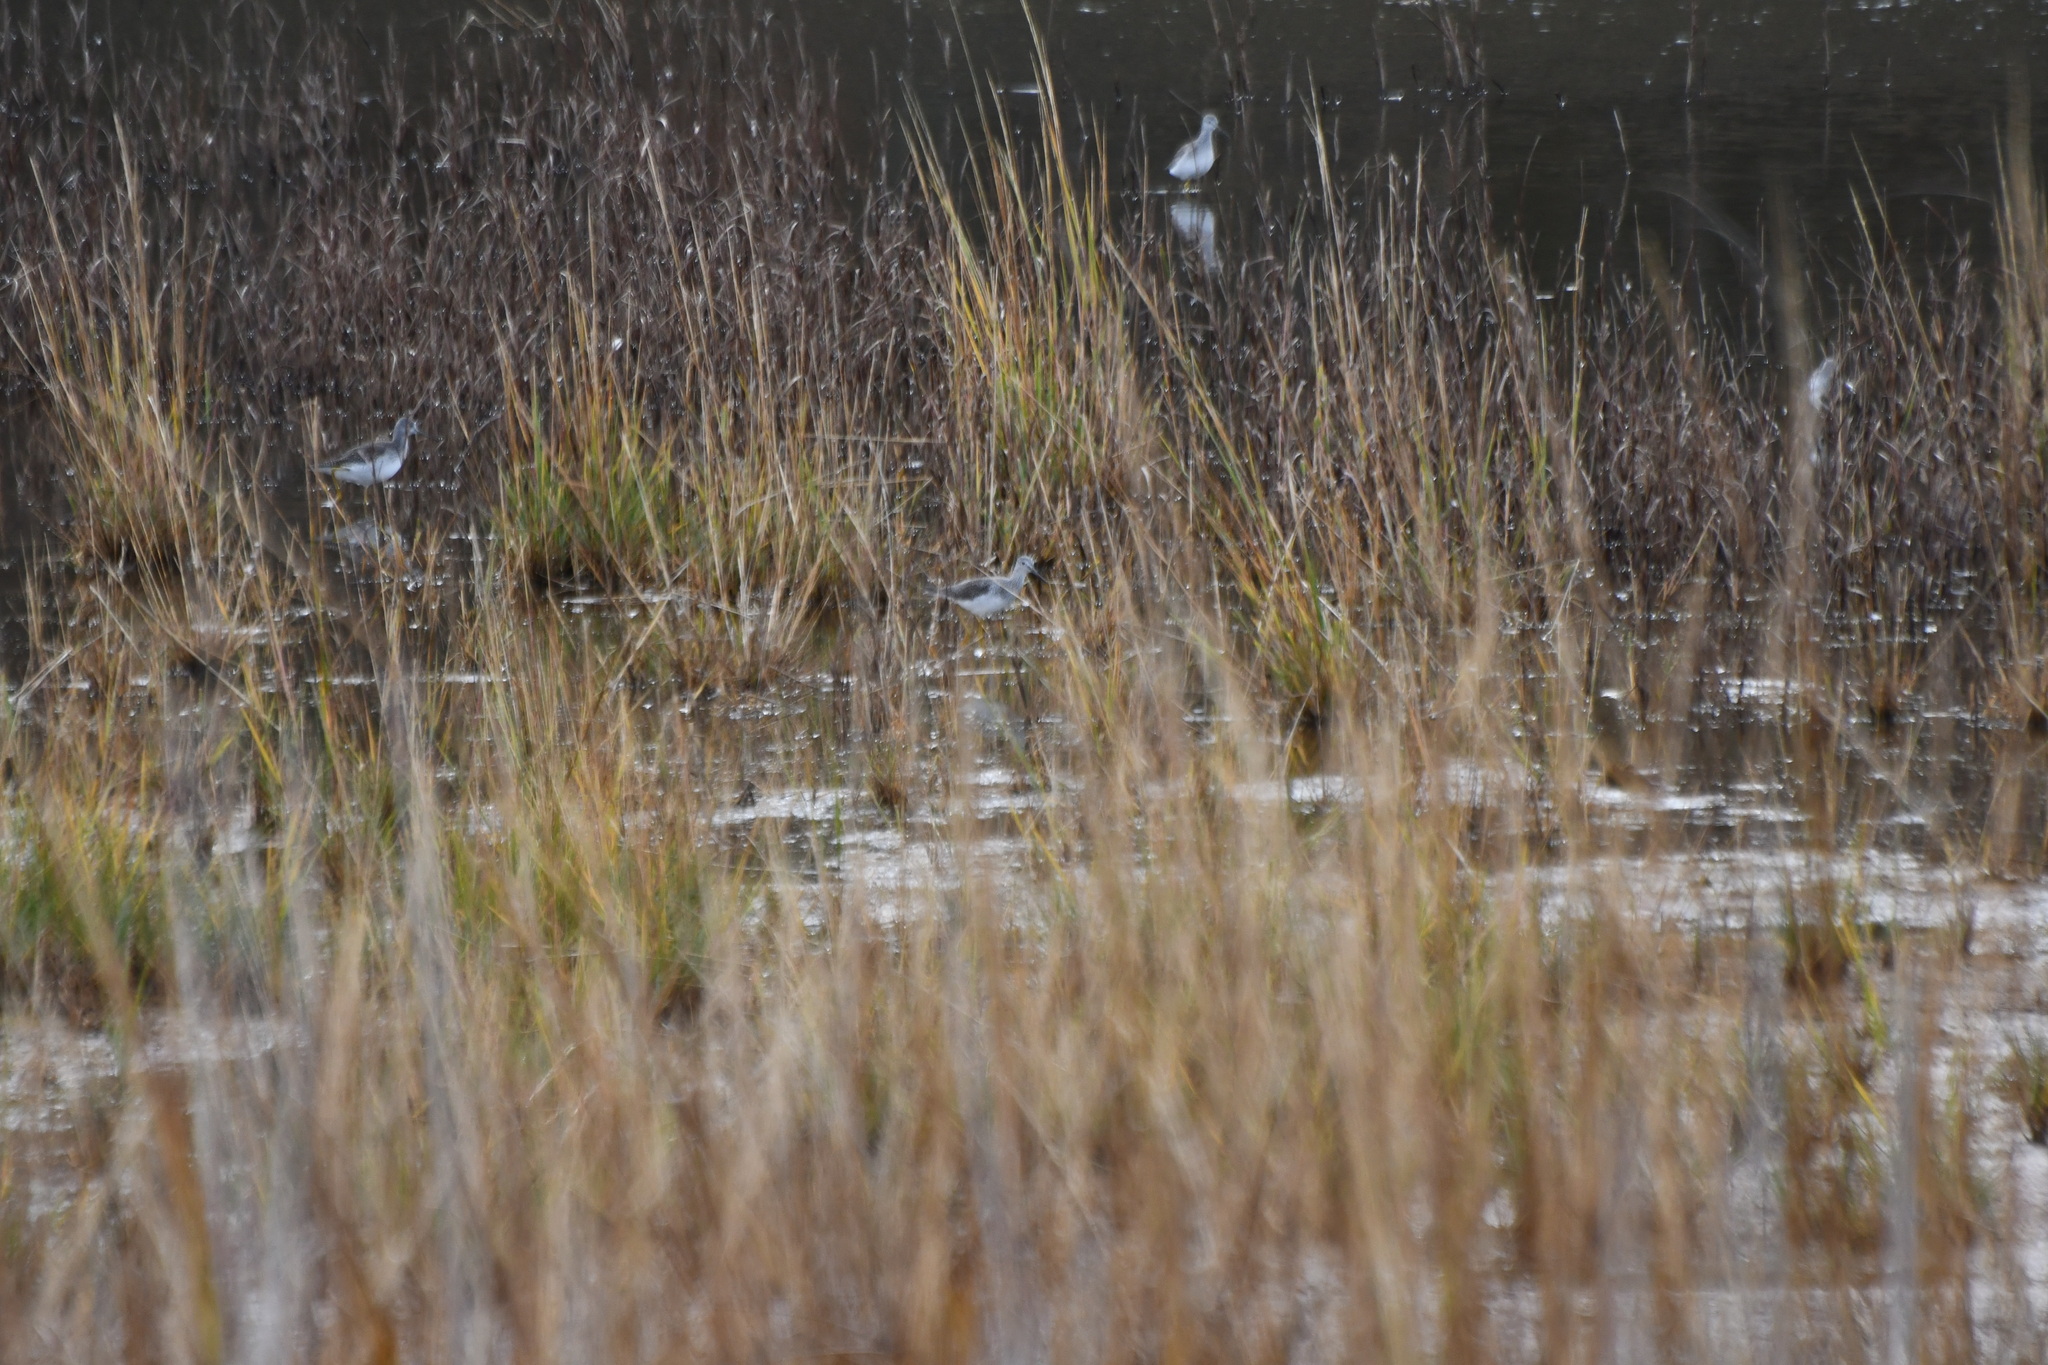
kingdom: Animalia
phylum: Chordata
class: Aves
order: Charadriiformes
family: Scolopacidae
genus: Tringa
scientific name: Tringa melanoleuca
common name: Greater yellowlegs
